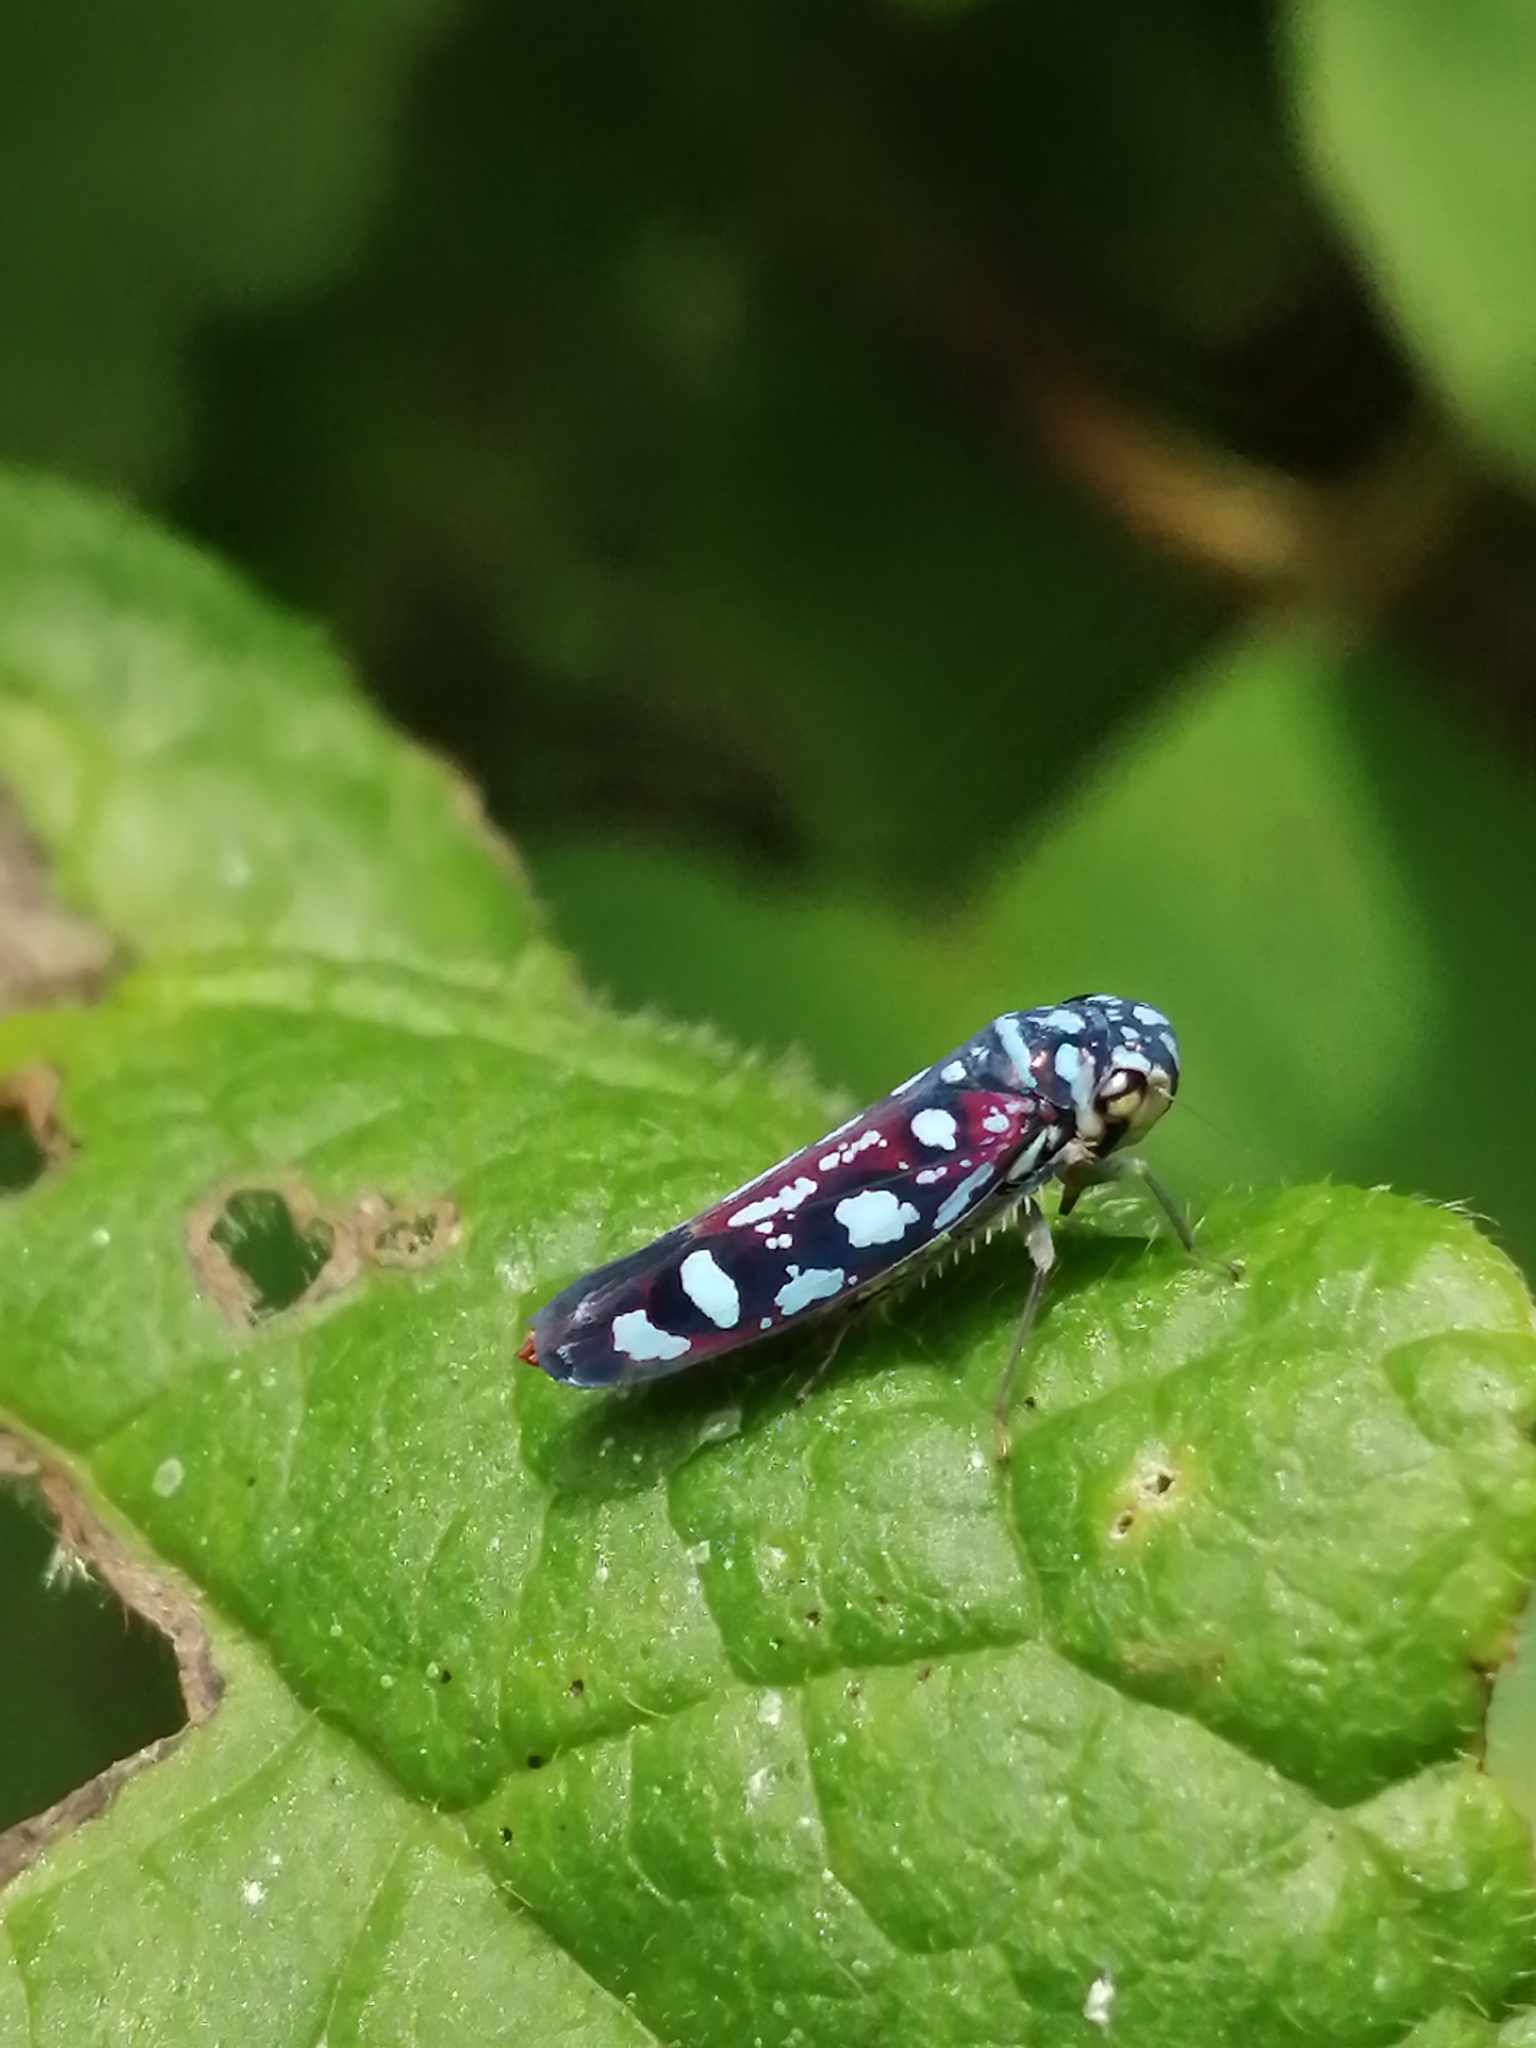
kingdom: Animalia
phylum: Arthropoda
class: Insecta
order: Hemiptera
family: Cicadellidae
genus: Macugonalia
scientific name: Macugonalia redundans
